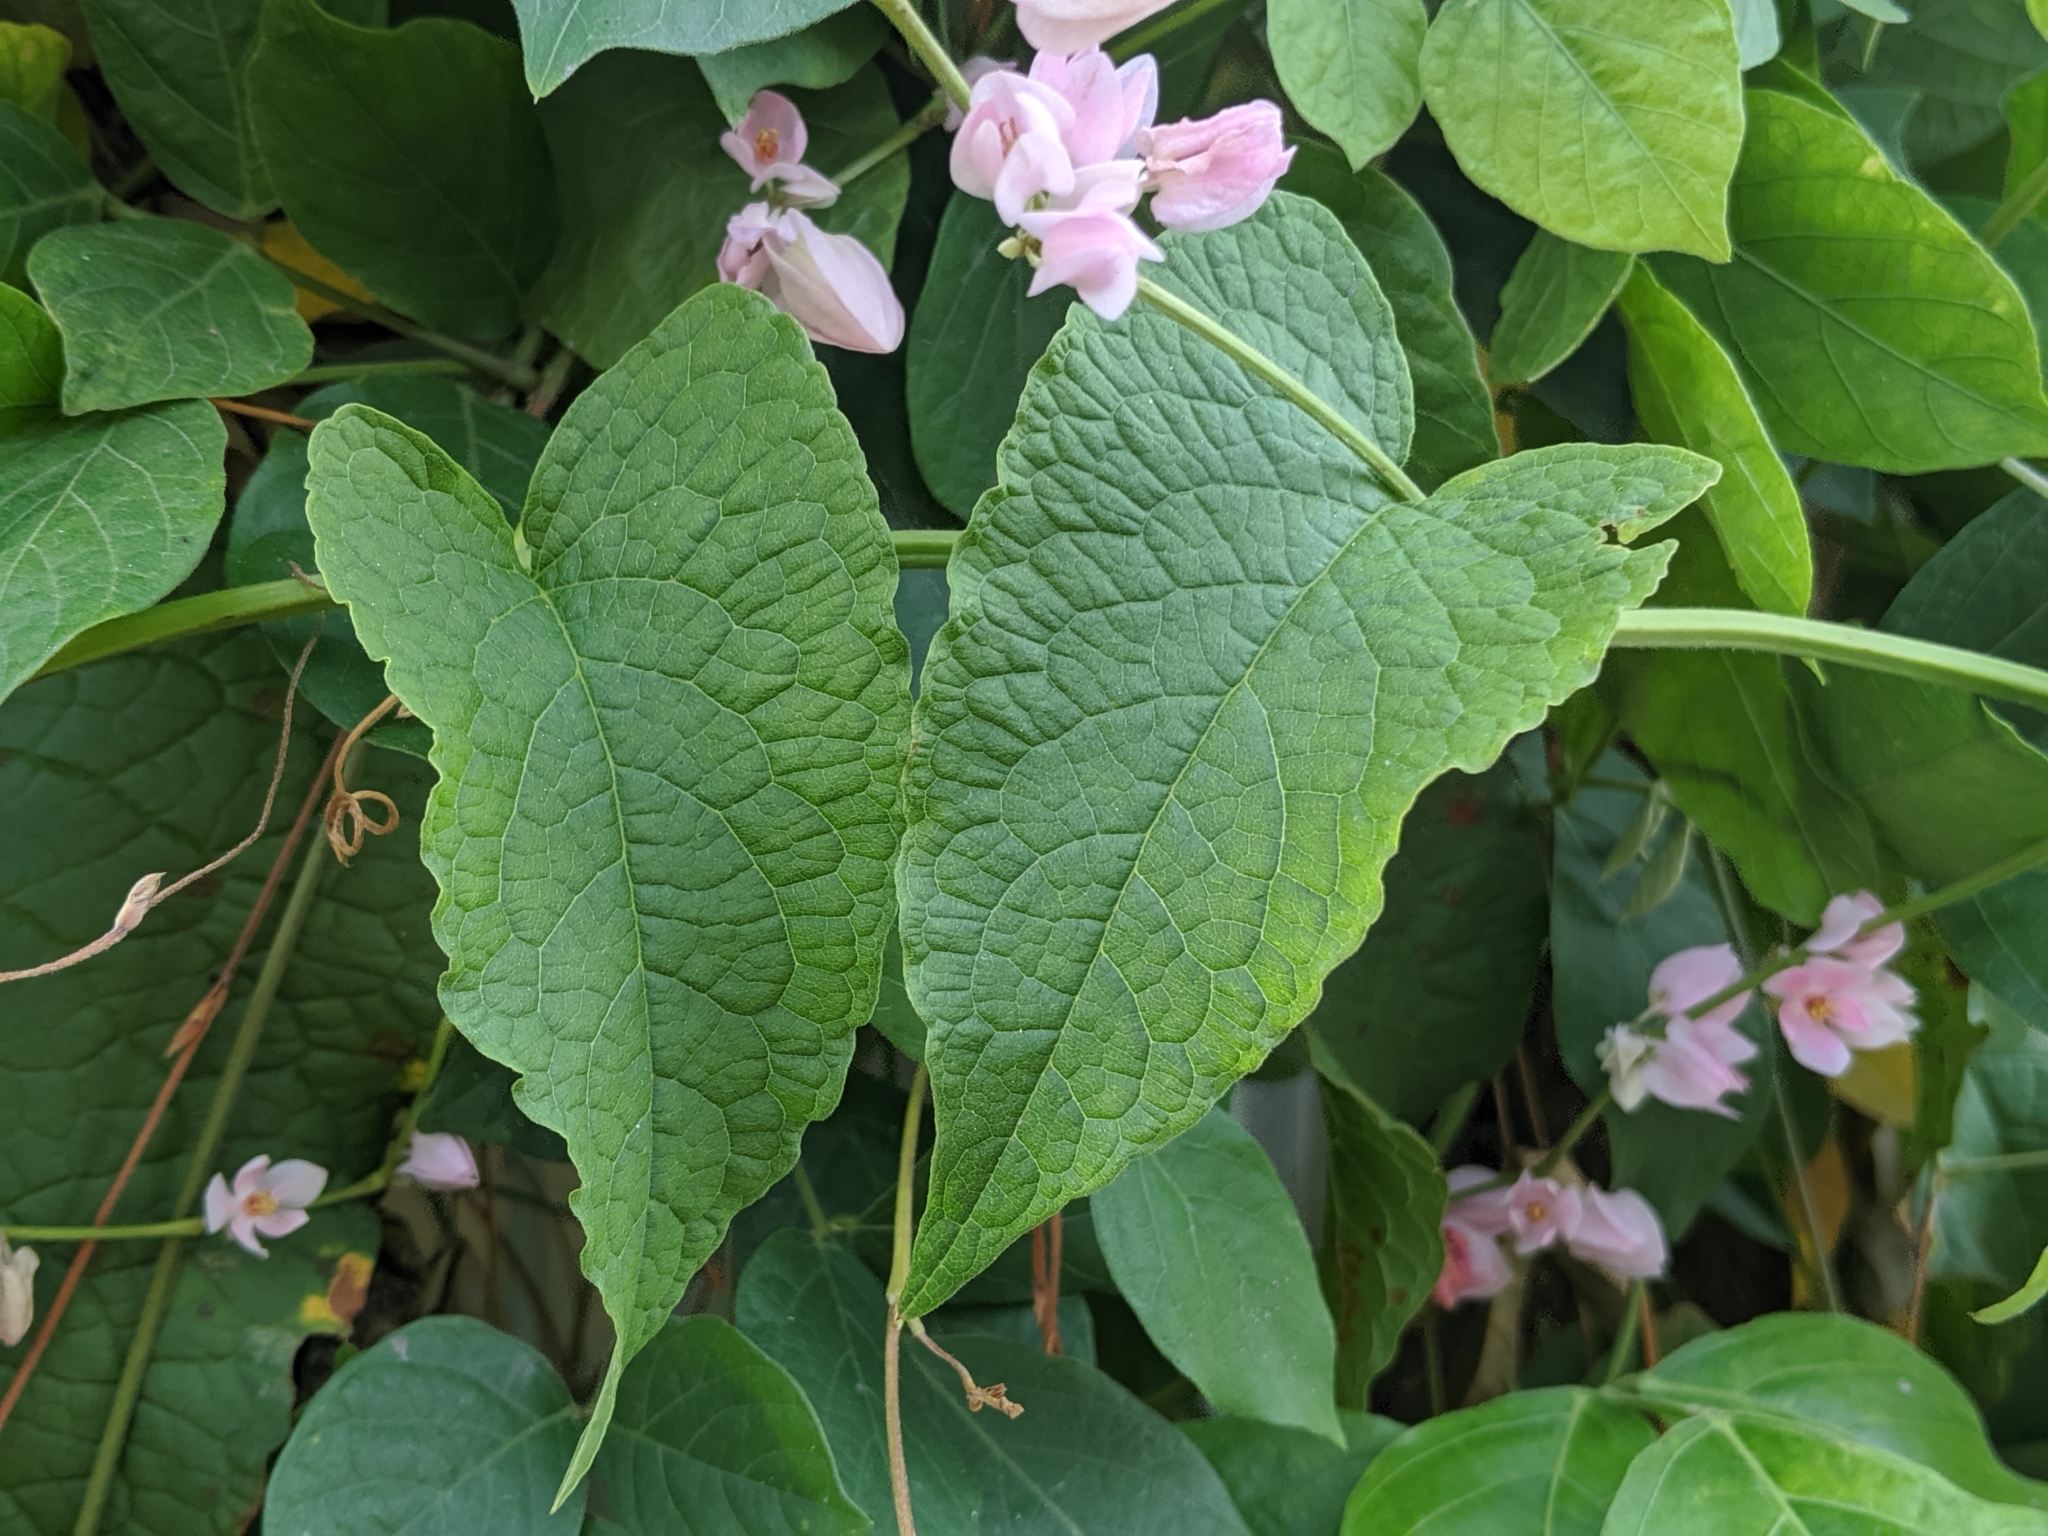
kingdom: Plantae
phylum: Tracheophyta
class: Magnoliopsida
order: Caryophyllales
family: Polygonaceae
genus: Antigonon
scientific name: Antigonon leptopus
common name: Coral vine
